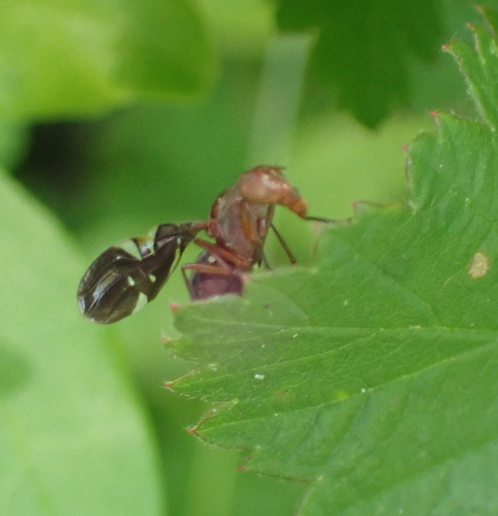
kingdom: Animalia
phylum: Arthropoda
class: Insecta
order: Diptera
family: Ulidiidae
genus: Delphinia
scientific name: Delphinia picta
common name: Common picture-winged fly
